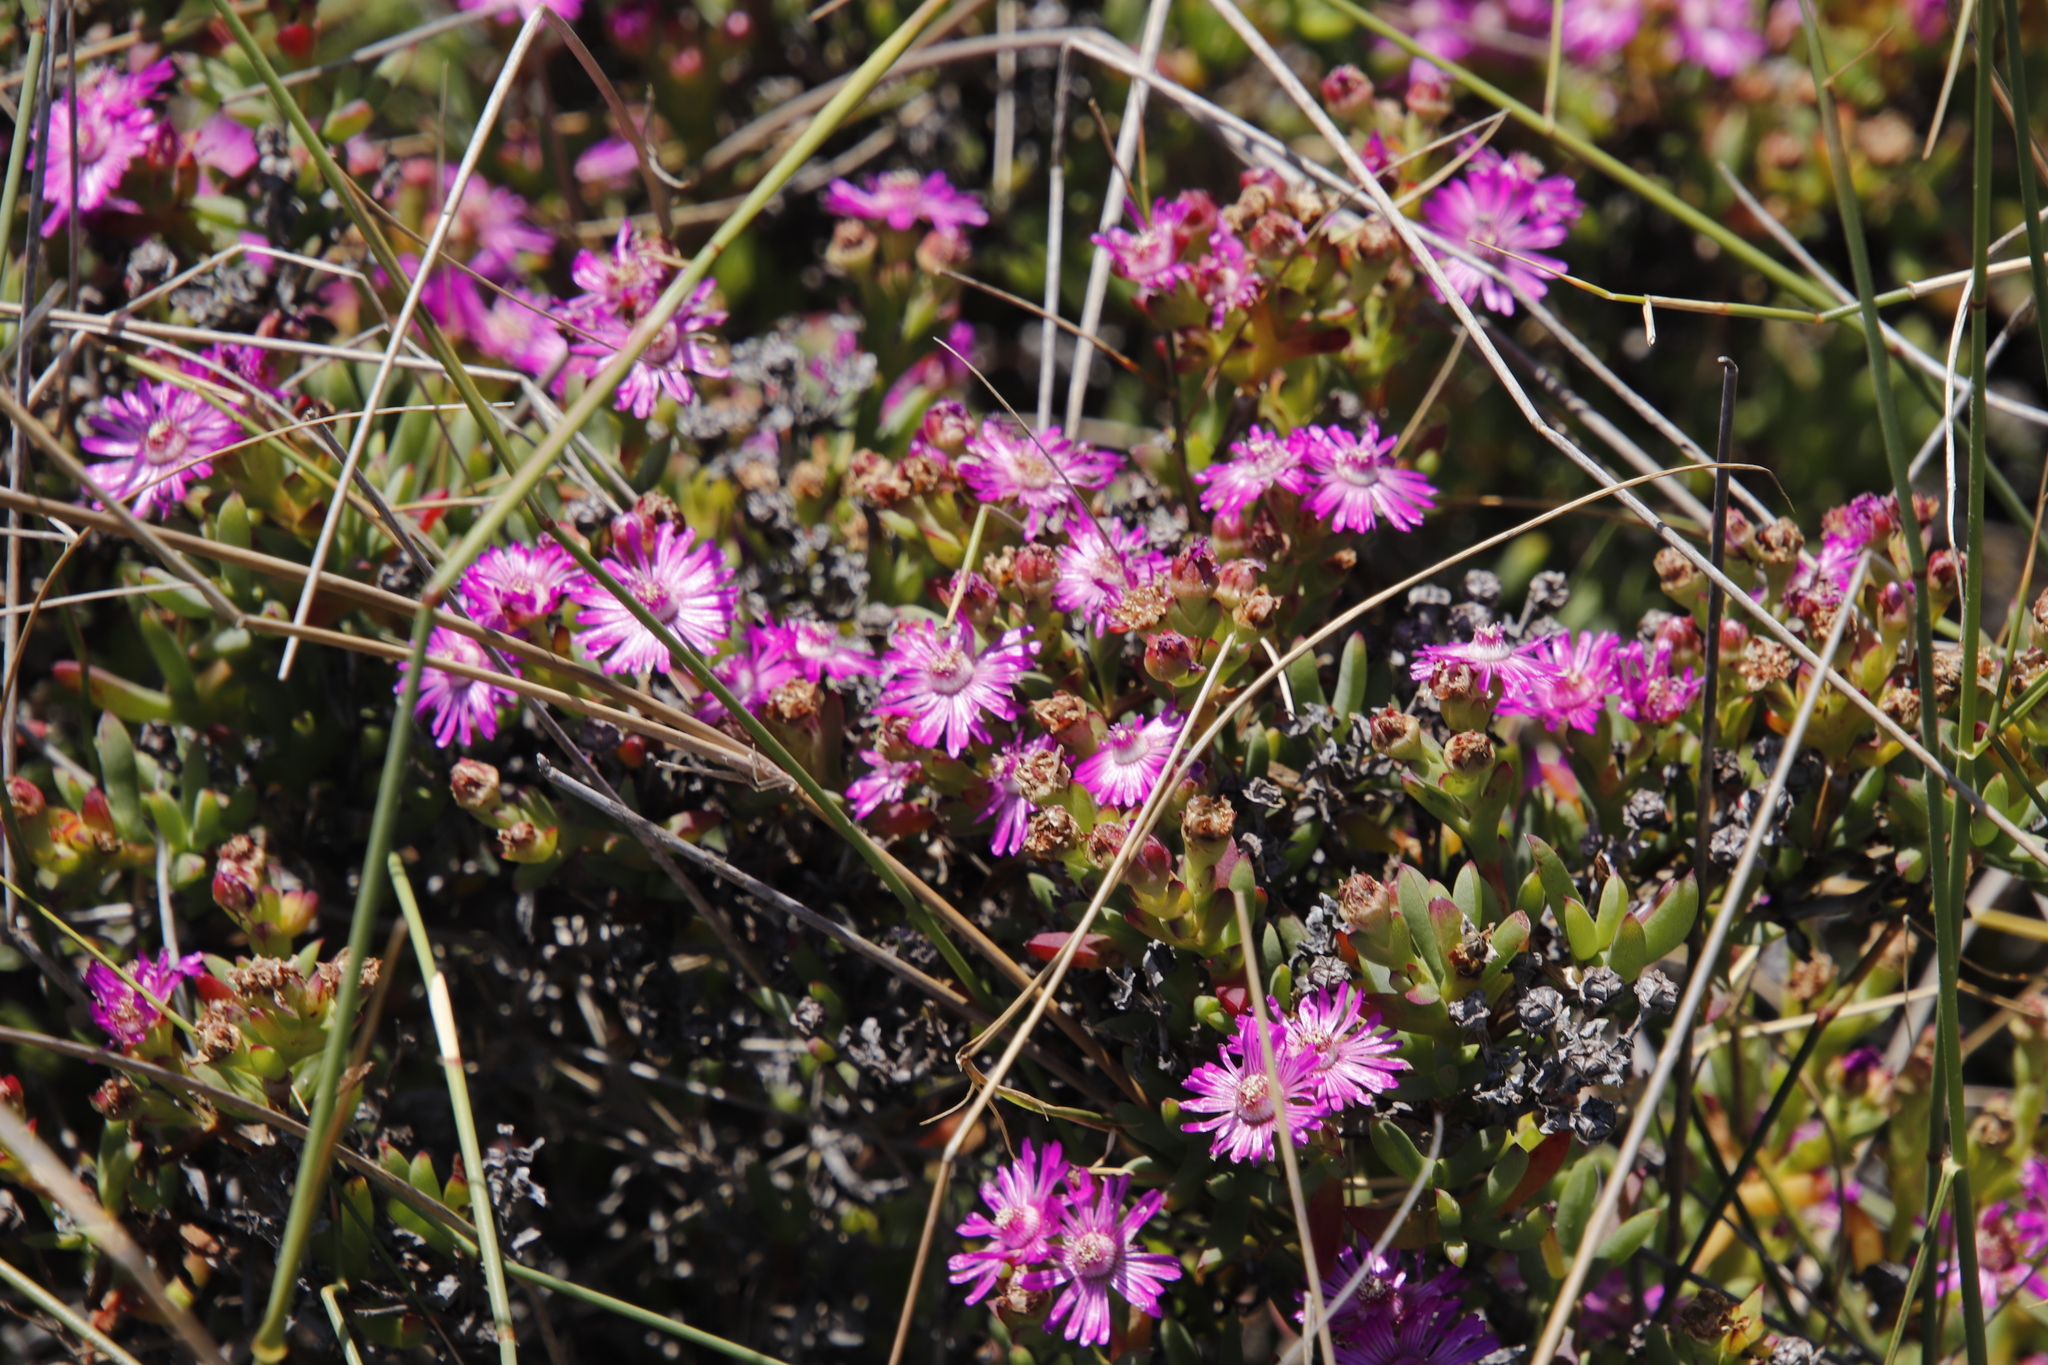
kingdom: Plantae
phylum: Tracheophyta
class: Magnoliopsida
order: Caryophyllales
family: Aizoaceae
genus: Ruschia
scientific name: Ruschia macowanii
